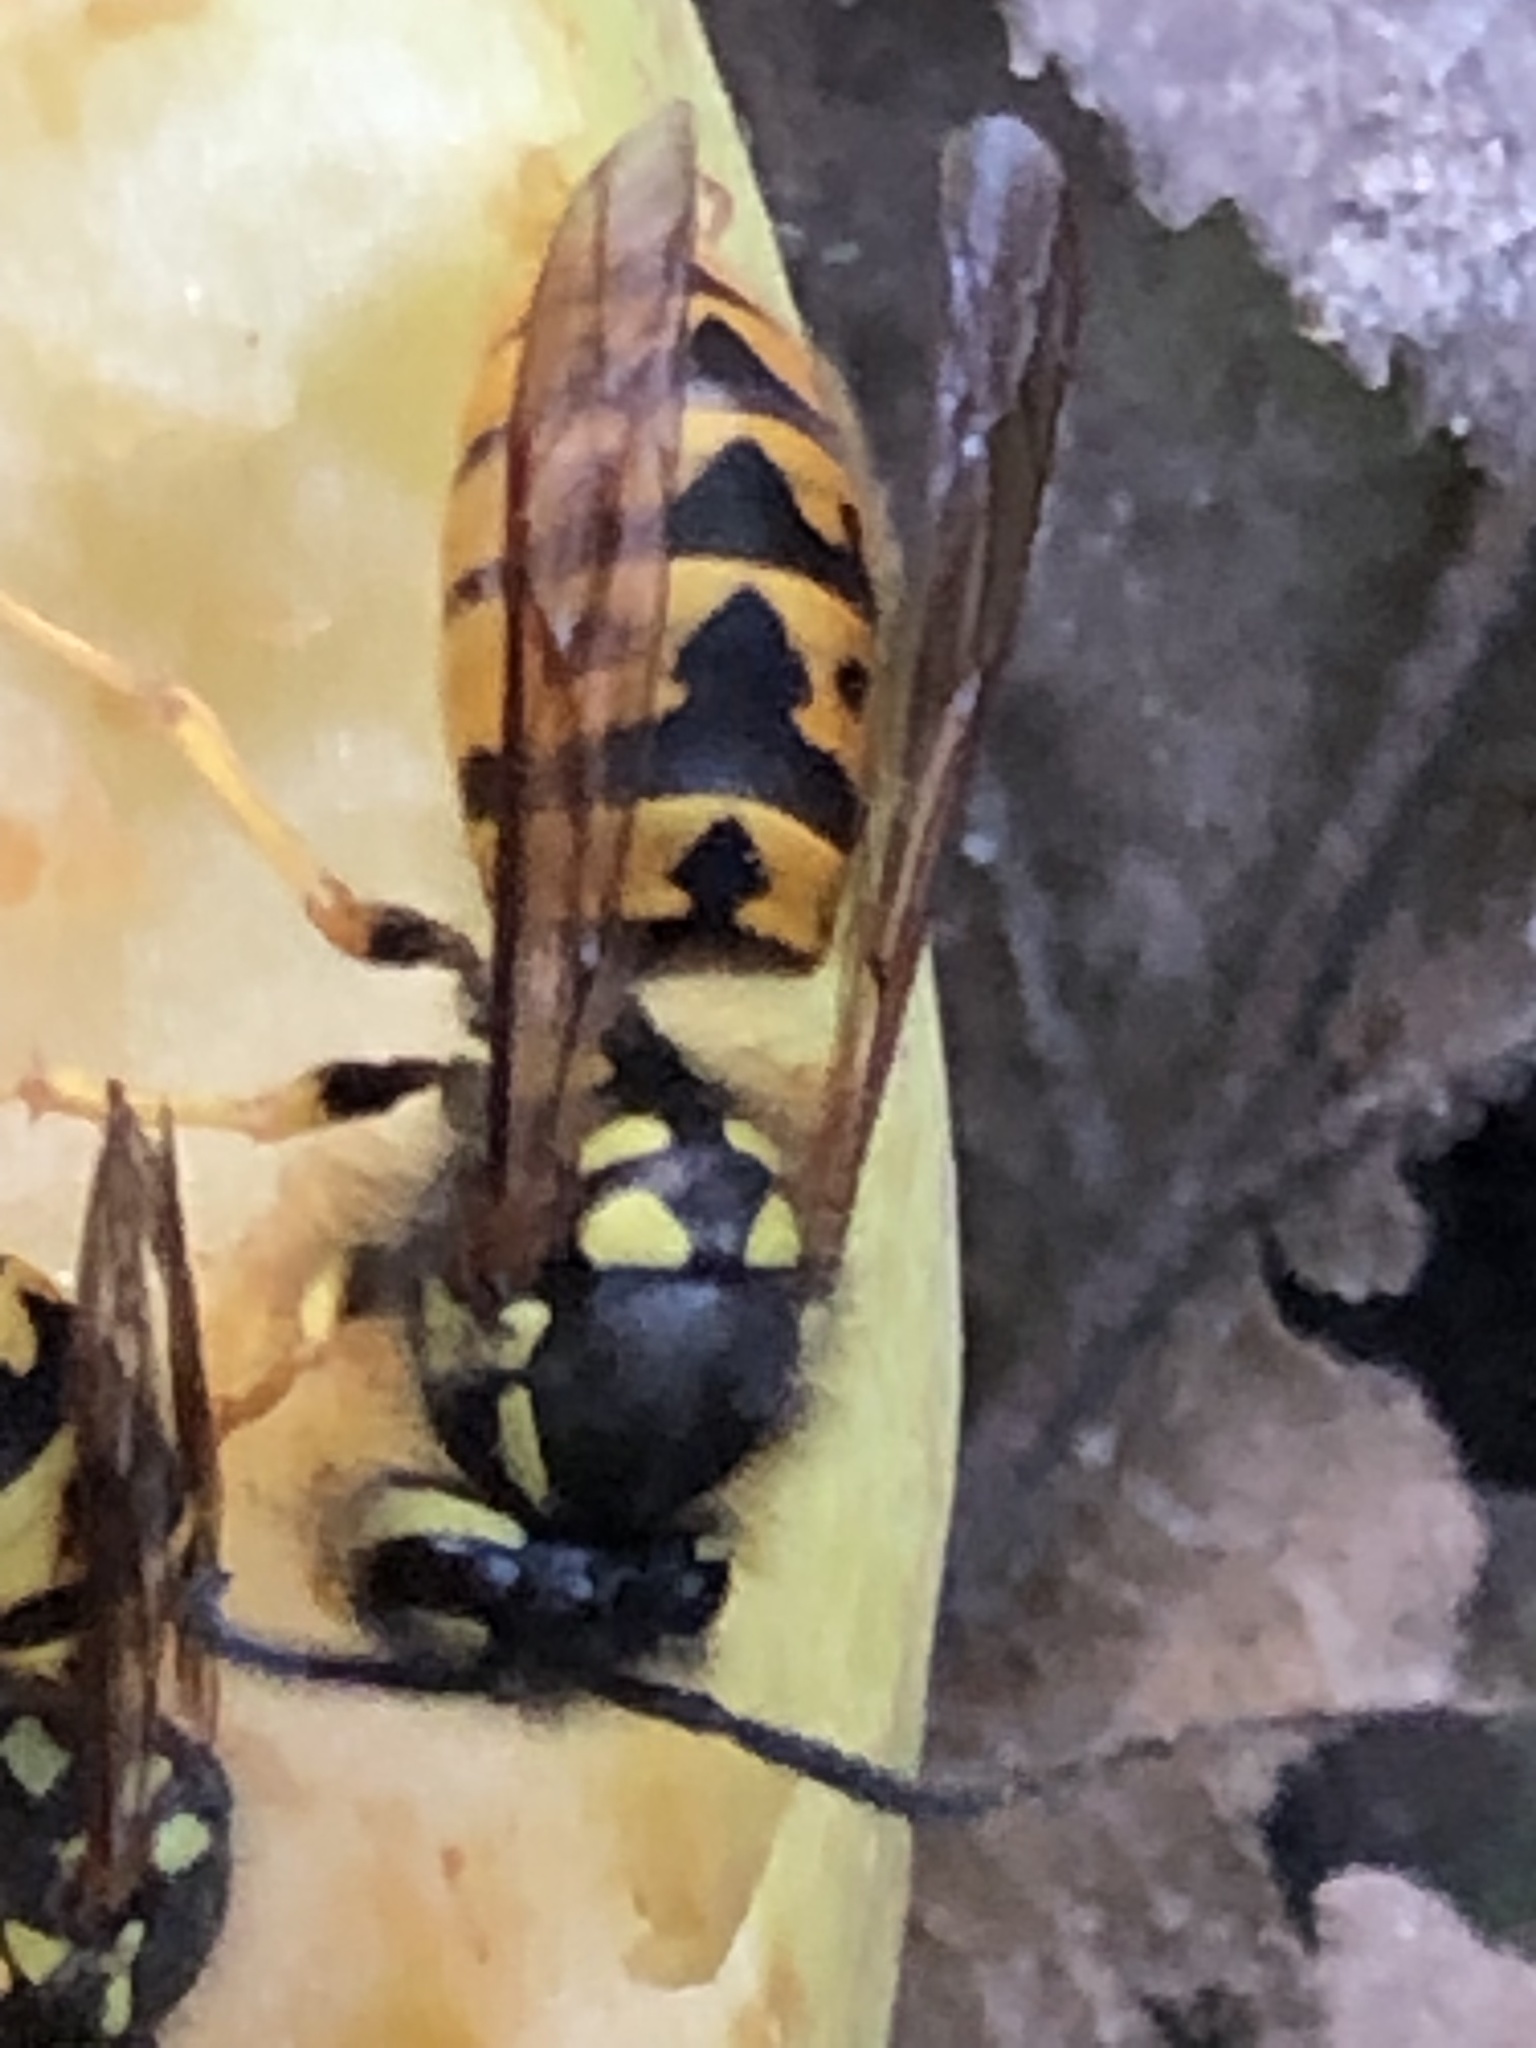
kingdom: Animalia
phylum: Arthropoda
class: Insecta
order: Hymenoptera
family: Vespidae
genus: Vespula
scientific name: Vespula germanica
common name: German wasp
